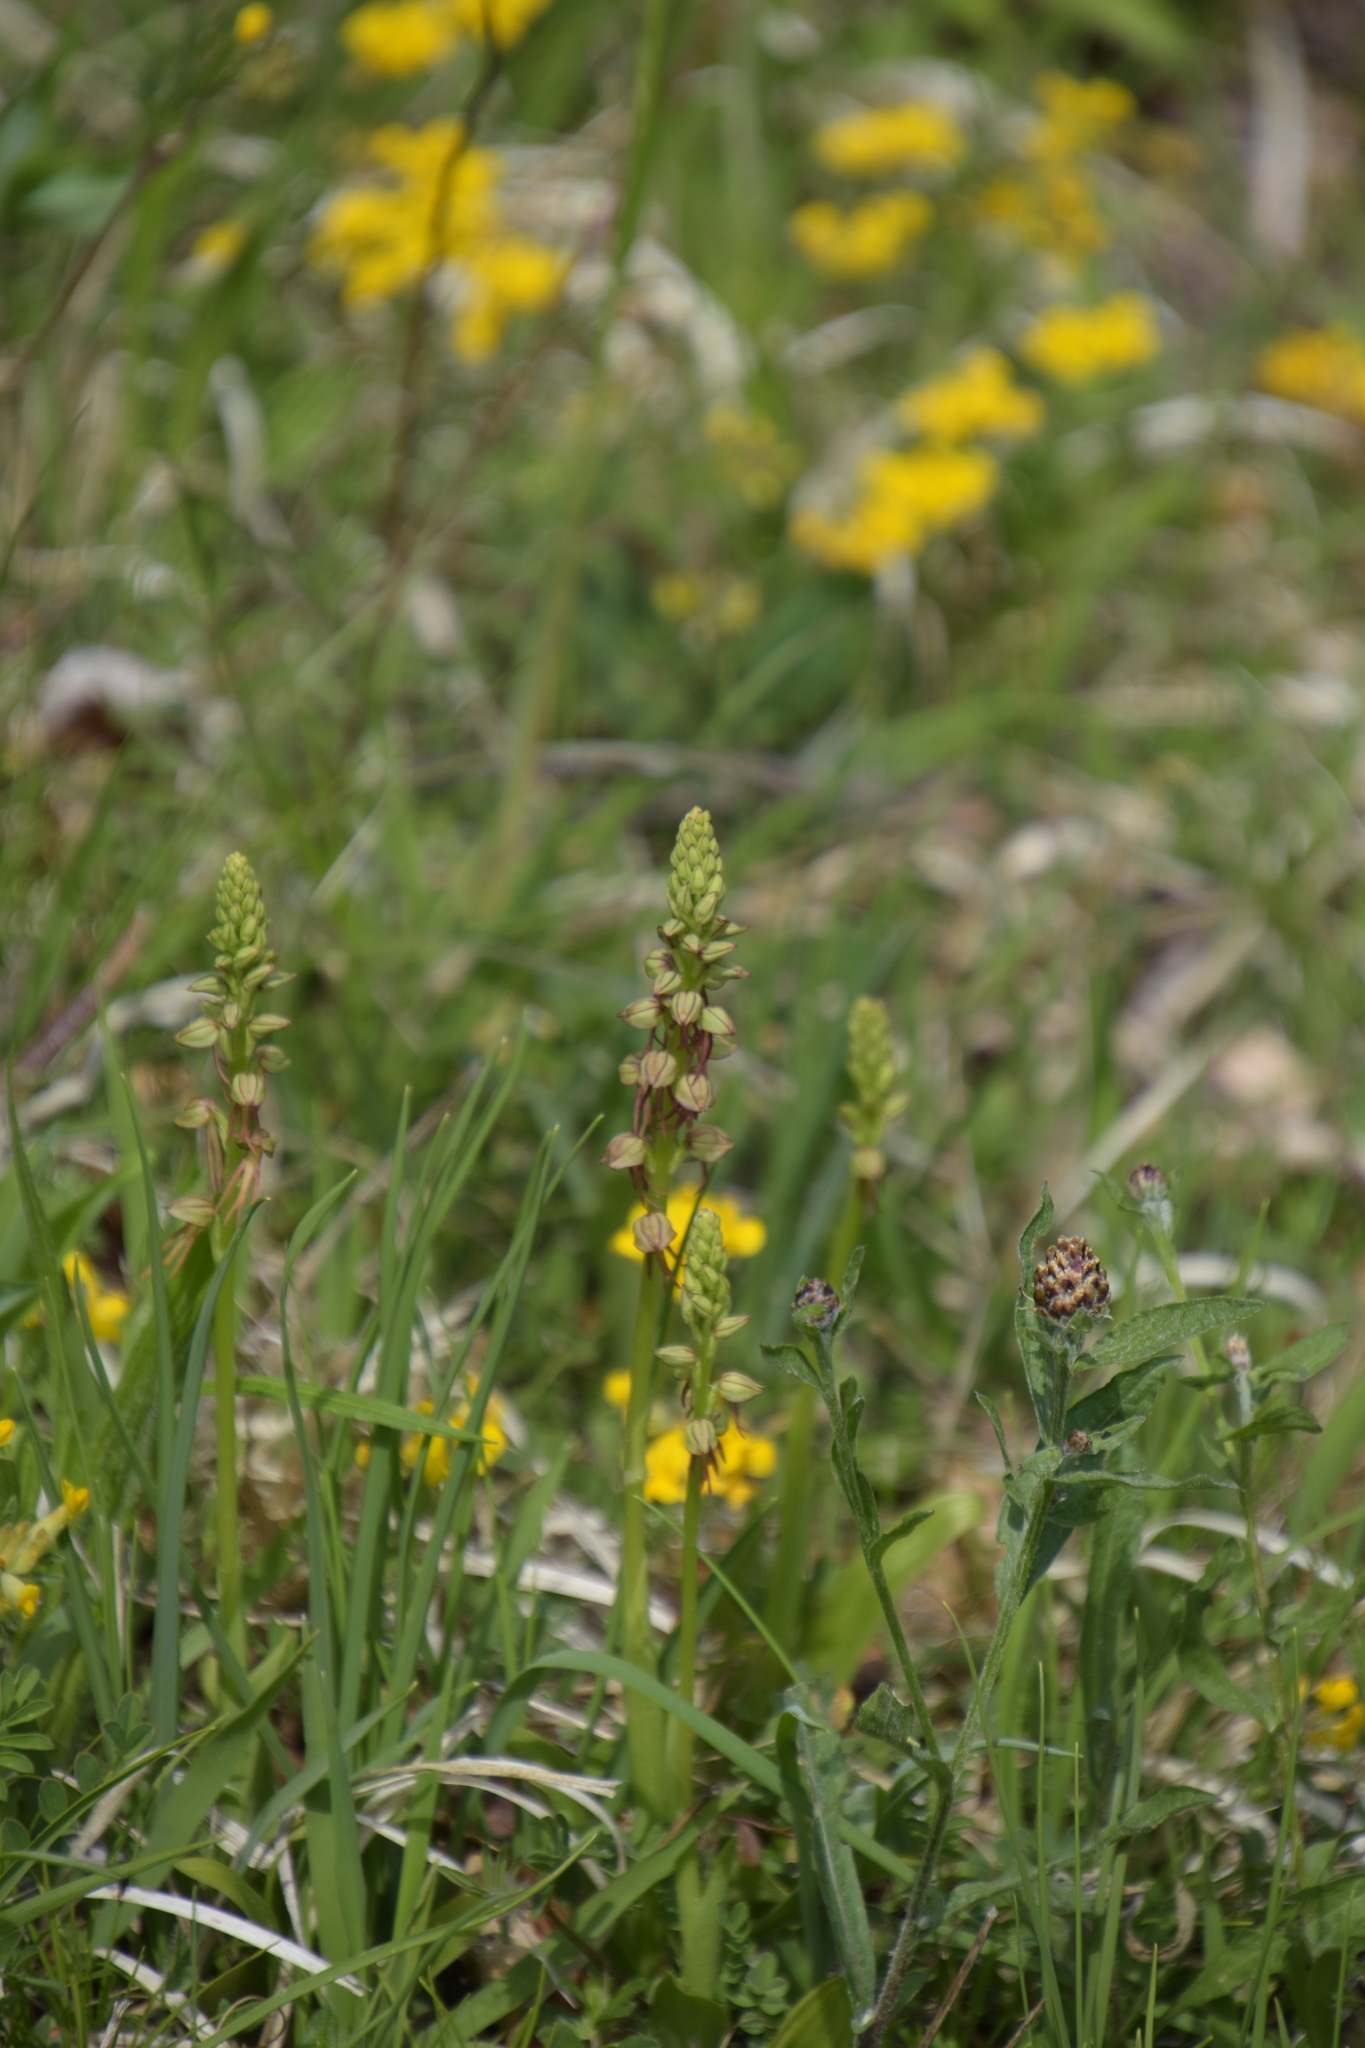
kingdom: Plantae
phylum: Tracheophyta
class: Liliopsida
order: Asparagales
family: Orchidaceae
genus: Orchis
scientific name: Orchis anthropophora
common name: Man orchid
